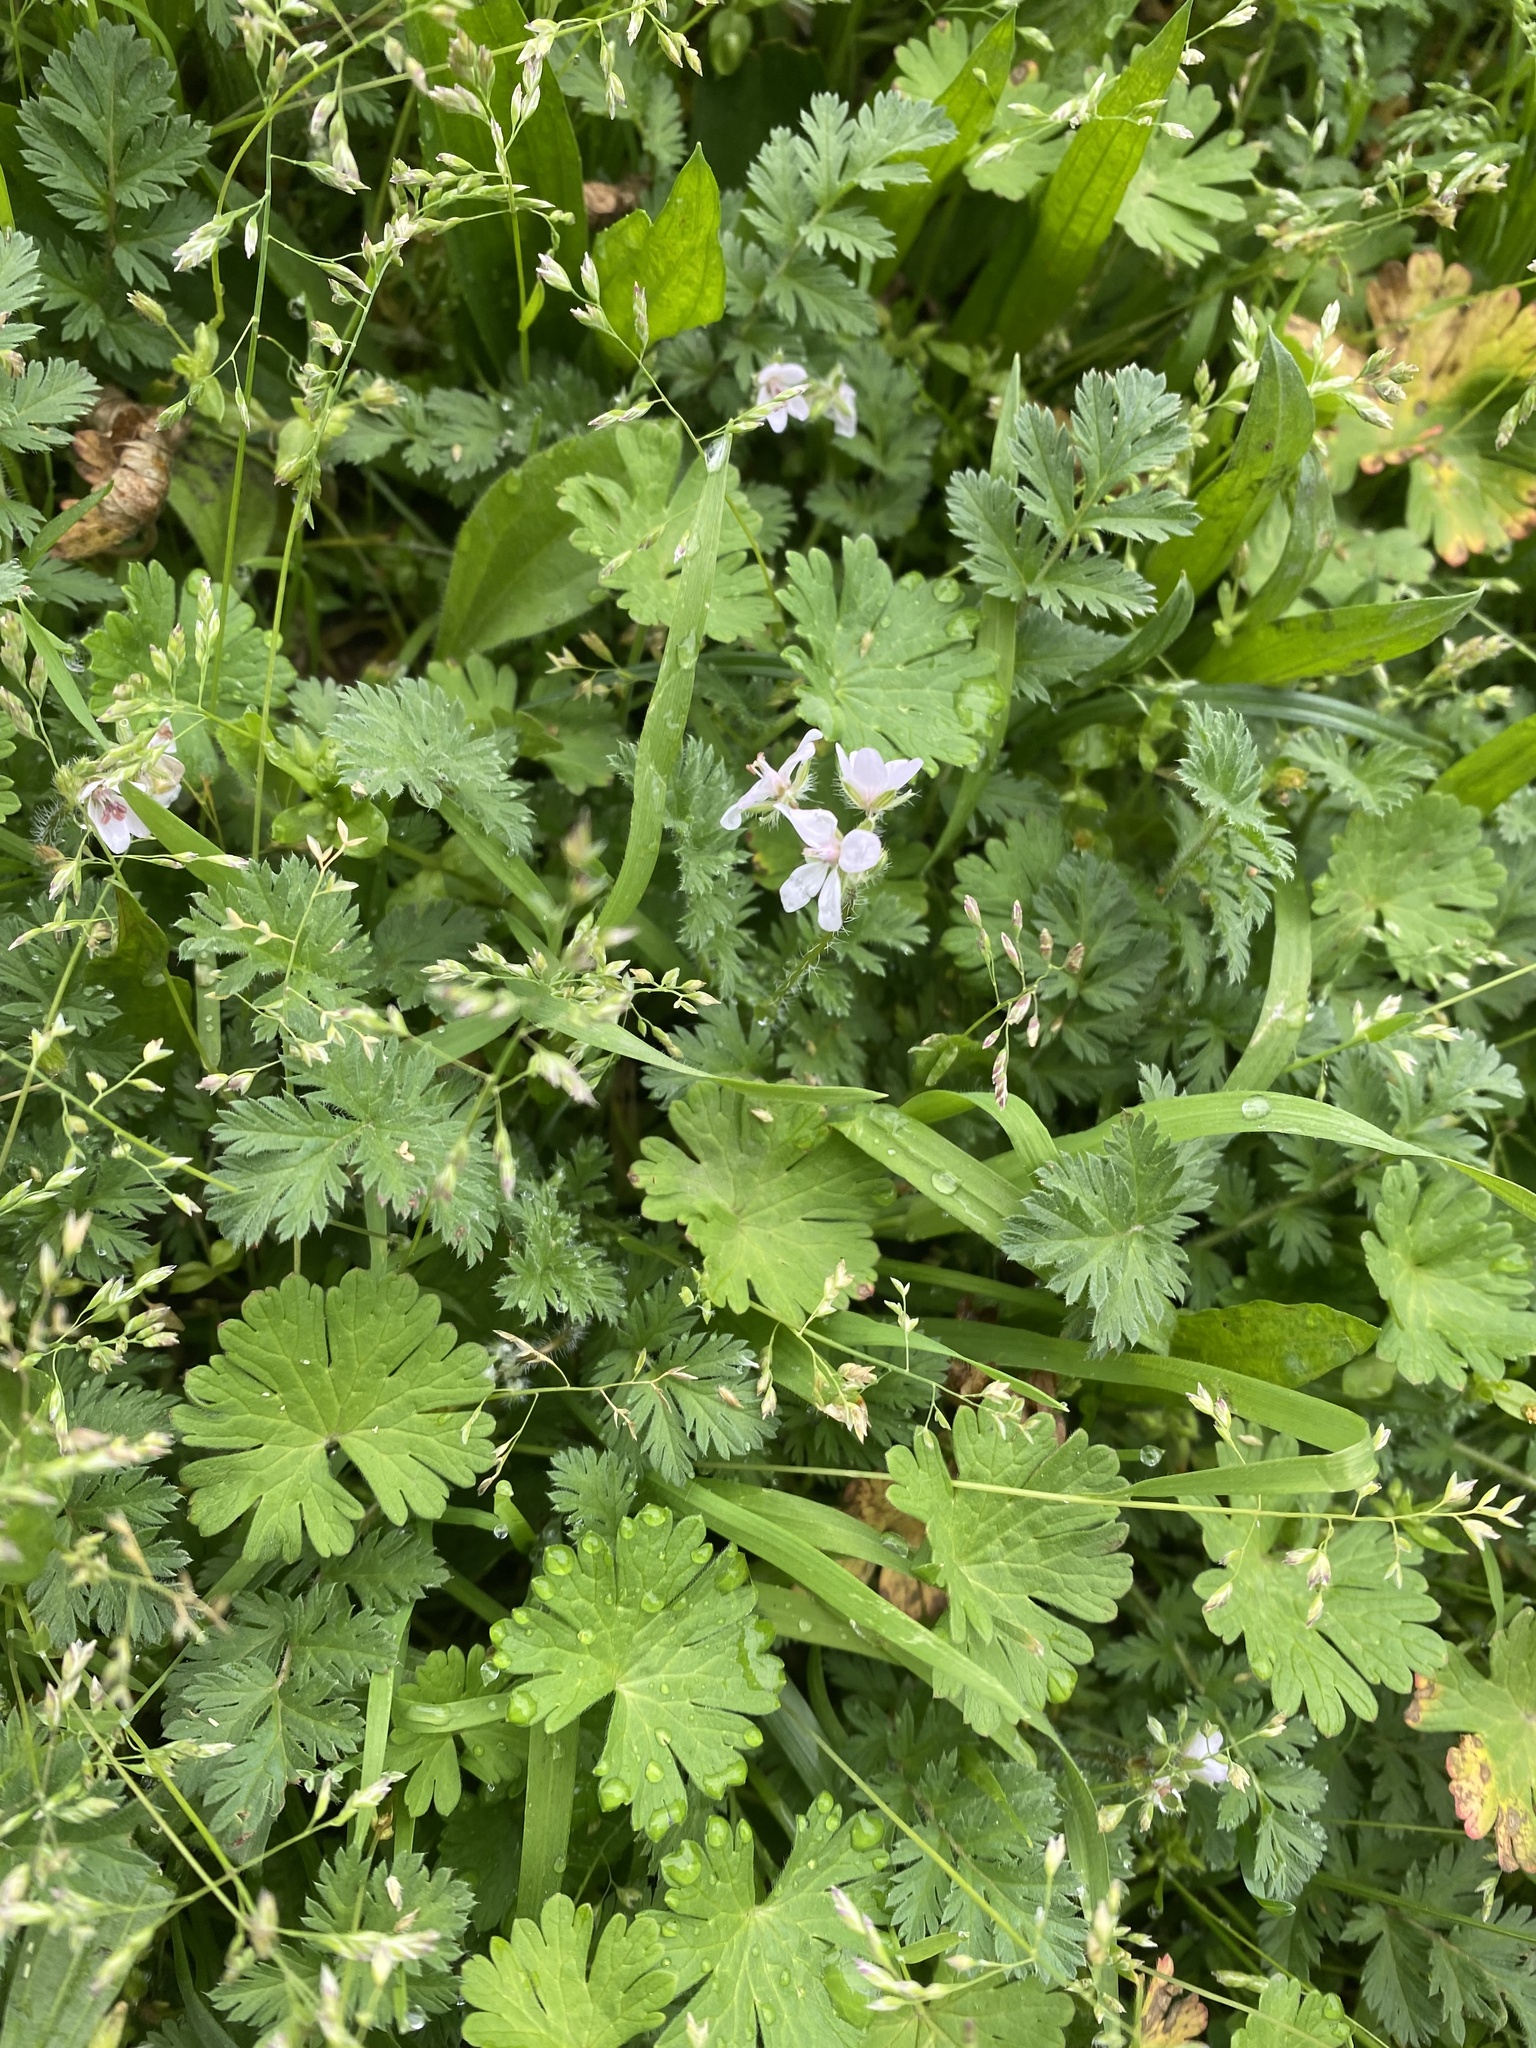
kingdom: Plantae
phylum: Tracheophyta
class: Magnoliopsida
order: Geraniales
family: Geraniaceae
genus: Erodium
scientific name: Erodium cicutarium
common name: Common stork's-bill
